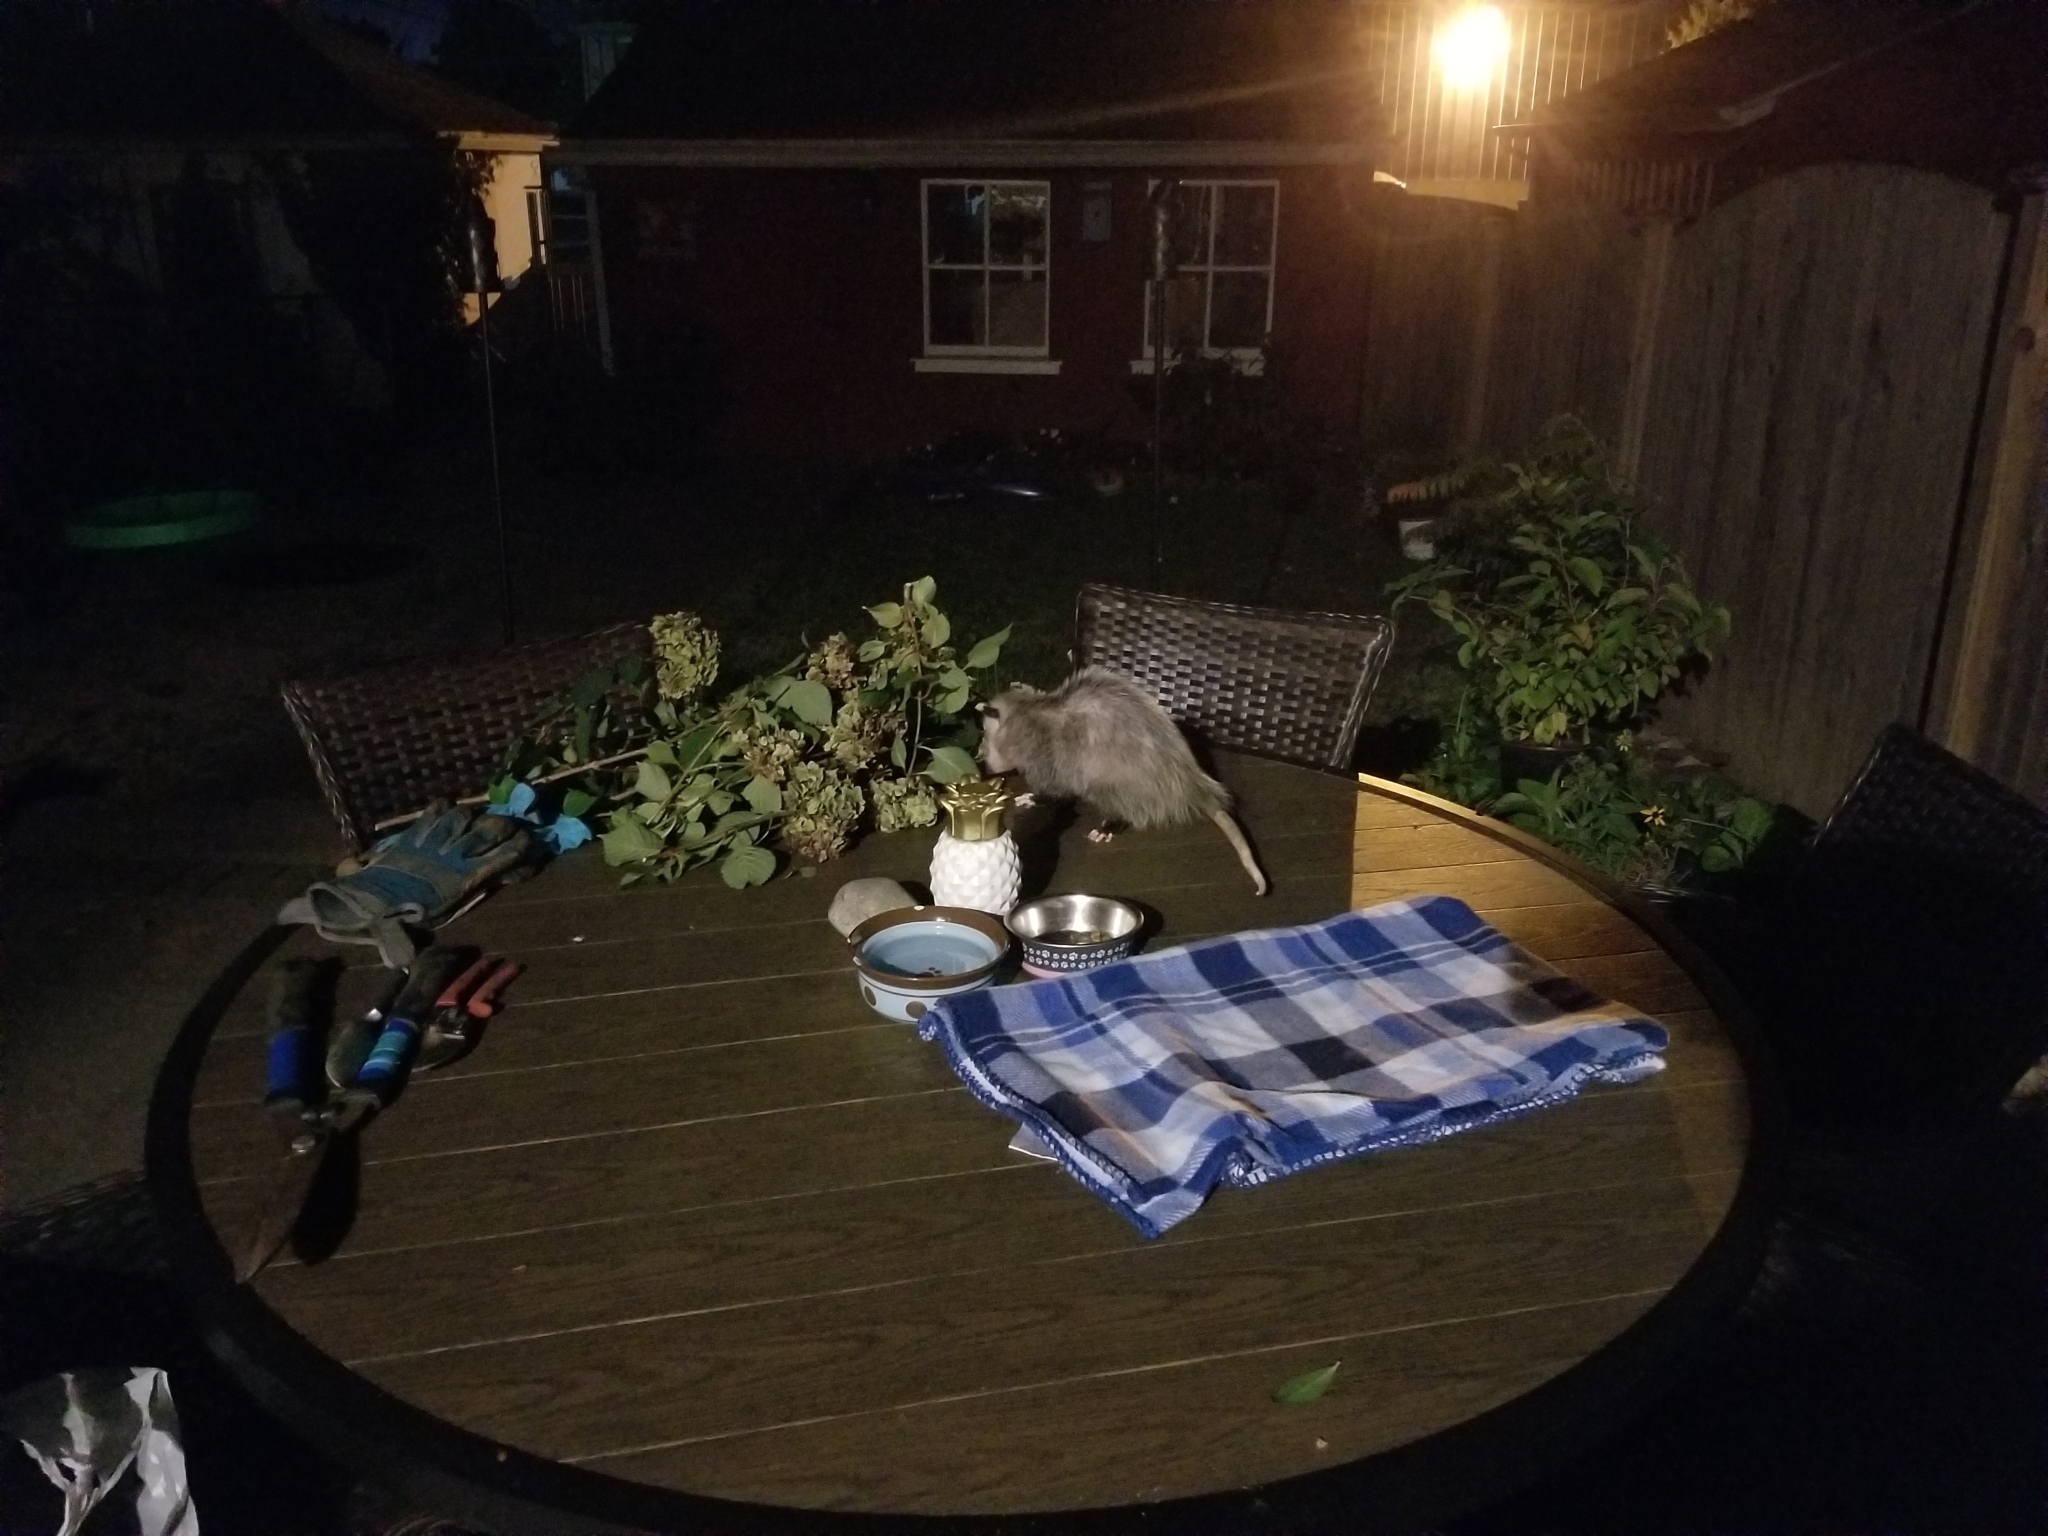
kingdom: Animalia
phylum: Chordata
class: Mammalia
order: Didelphimorphia
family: Didelphidae
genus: Didelphis
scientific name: Didelphis virginiana
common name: Virginia opossum
